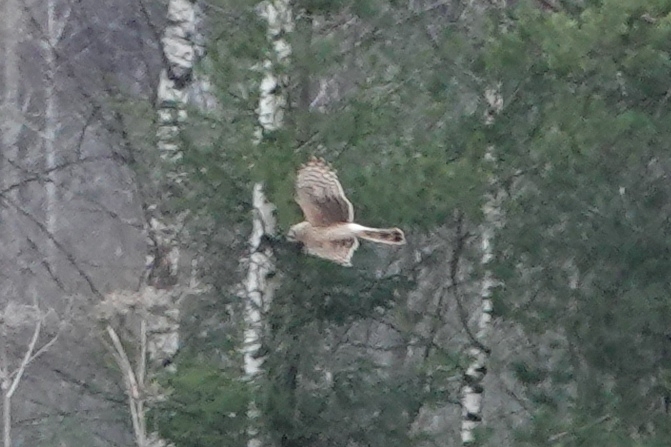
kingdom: Animalia
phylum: Chordata
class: Aves
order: Accipitriformes
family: Accipitridae
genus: Circus
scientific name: Circus cyaneus
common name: Hen harrier
